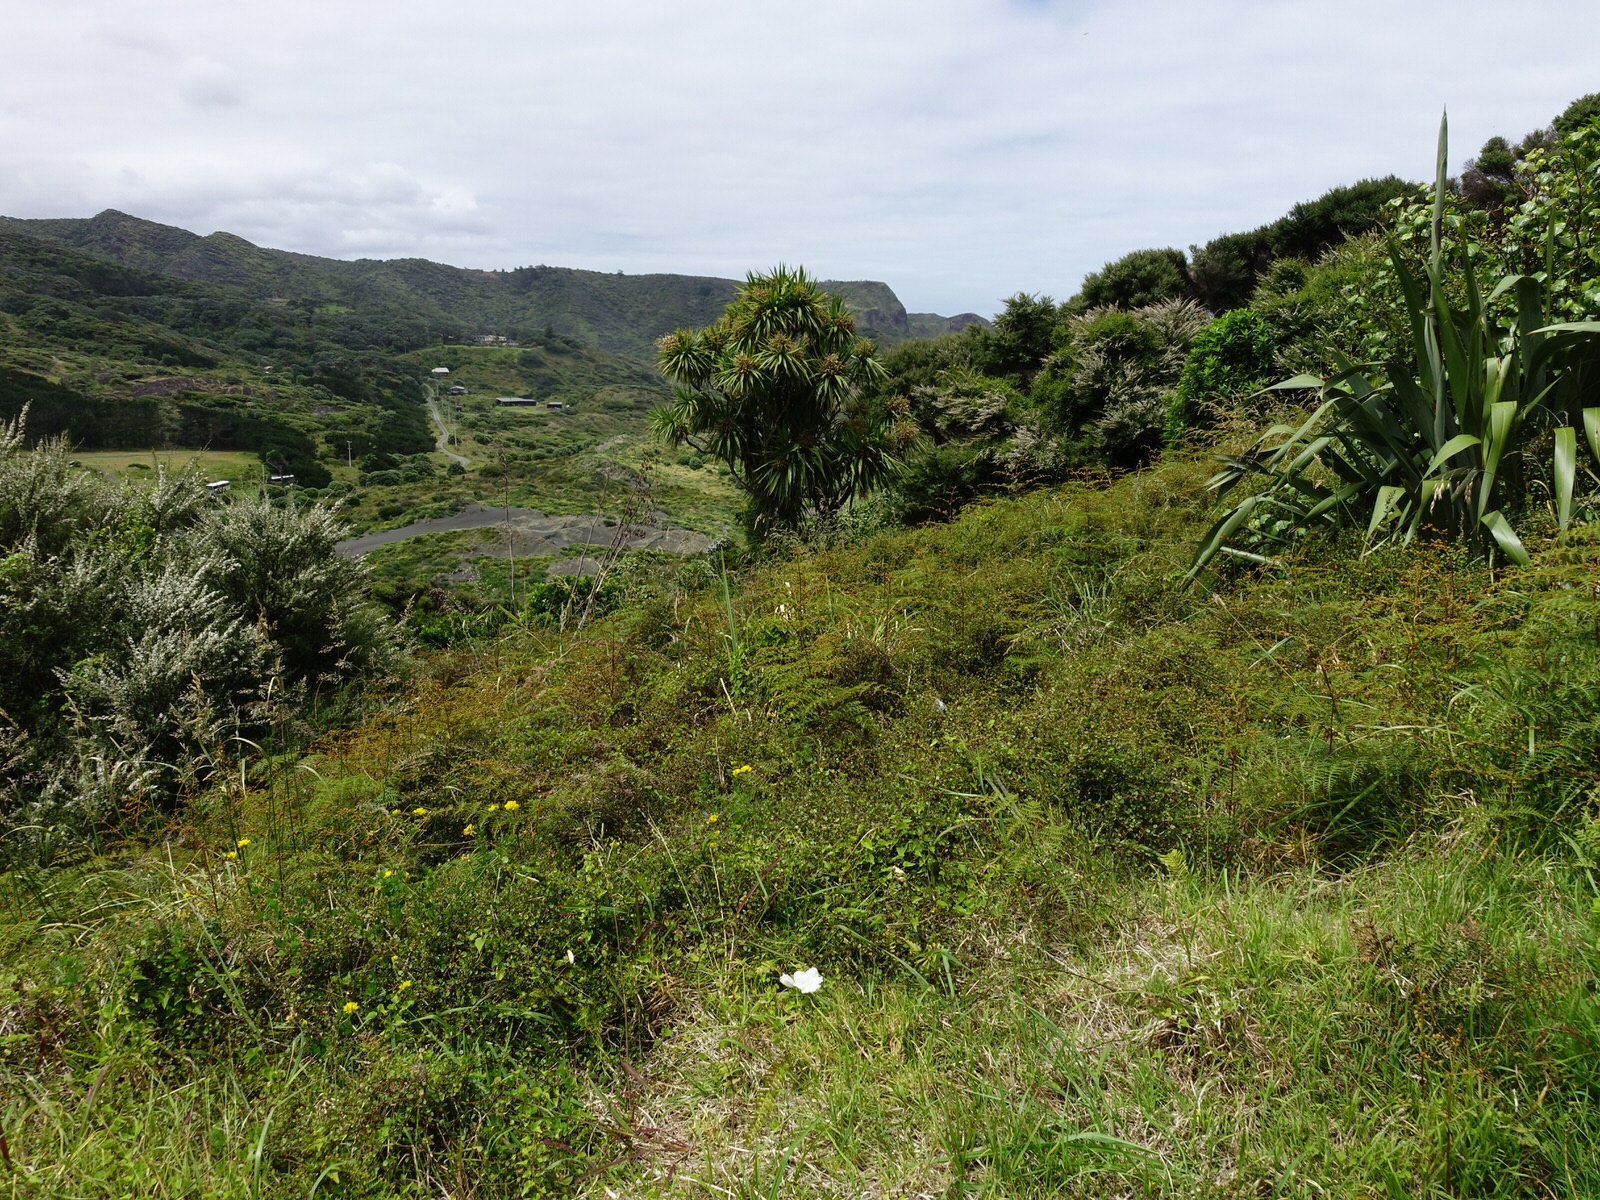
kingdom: Plantae
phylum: Tracheophyta
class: Magnoliopsida
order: Solanales
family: Convolvulaceae
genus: Calystegia
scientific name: Calystegia tuguriorum
